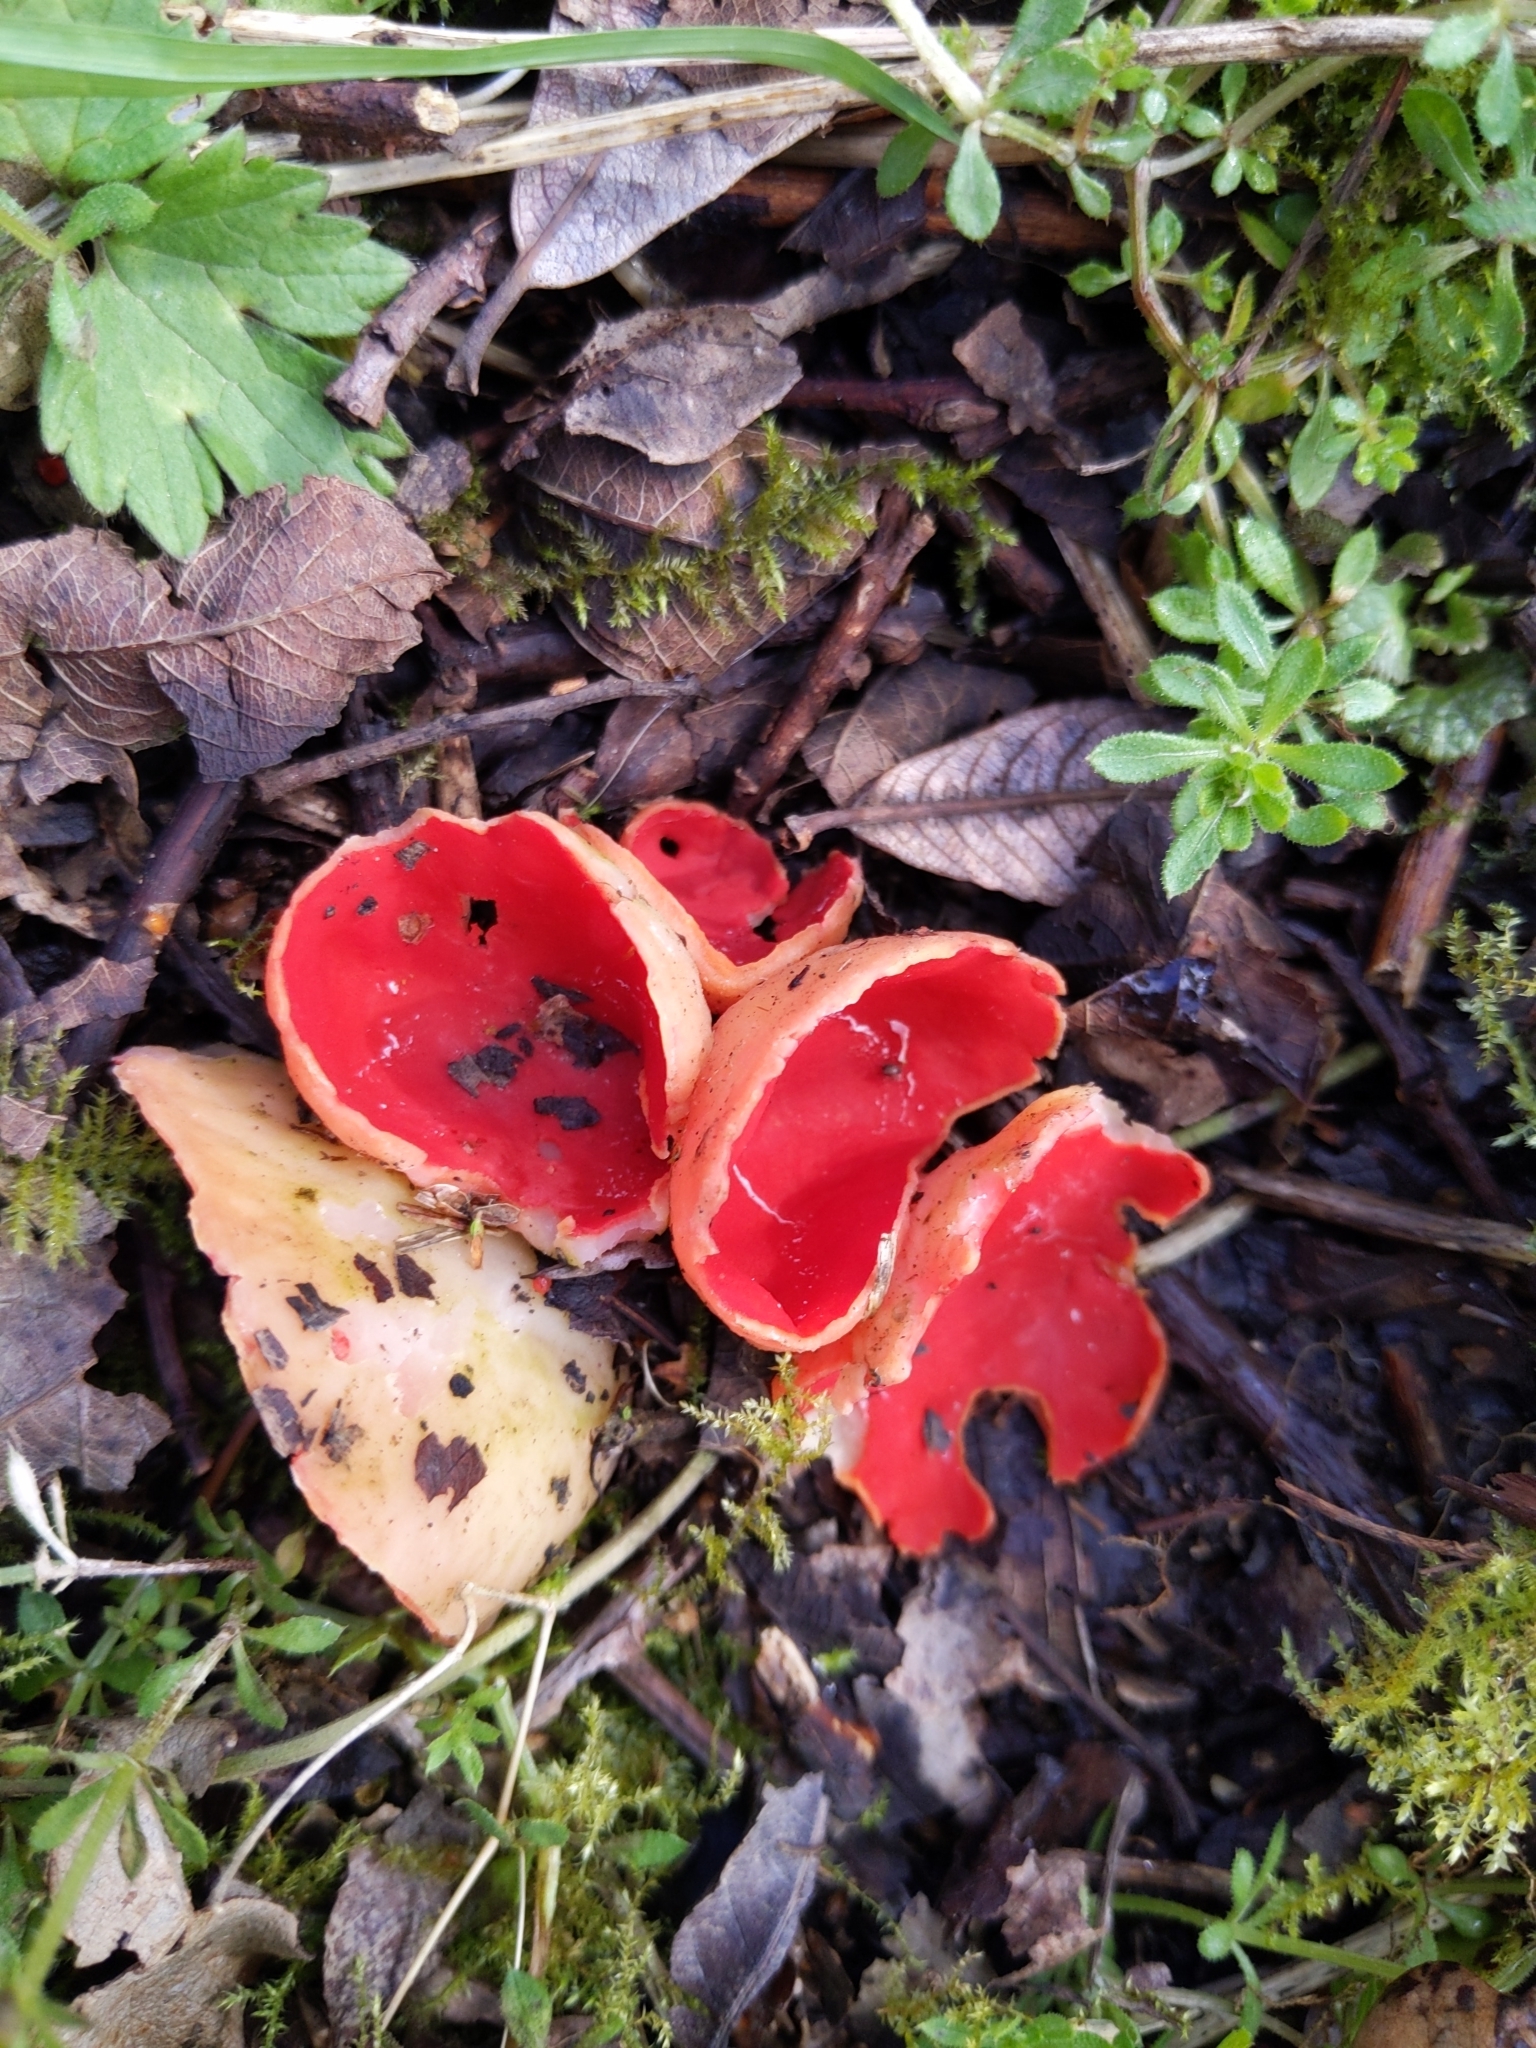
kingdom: Fungi
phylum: Ascomycota
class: Pezizomycetes
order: Pezizales
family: Sarcoscyphaceae
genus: Sarcoscypha
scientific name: Sarcoscypha
